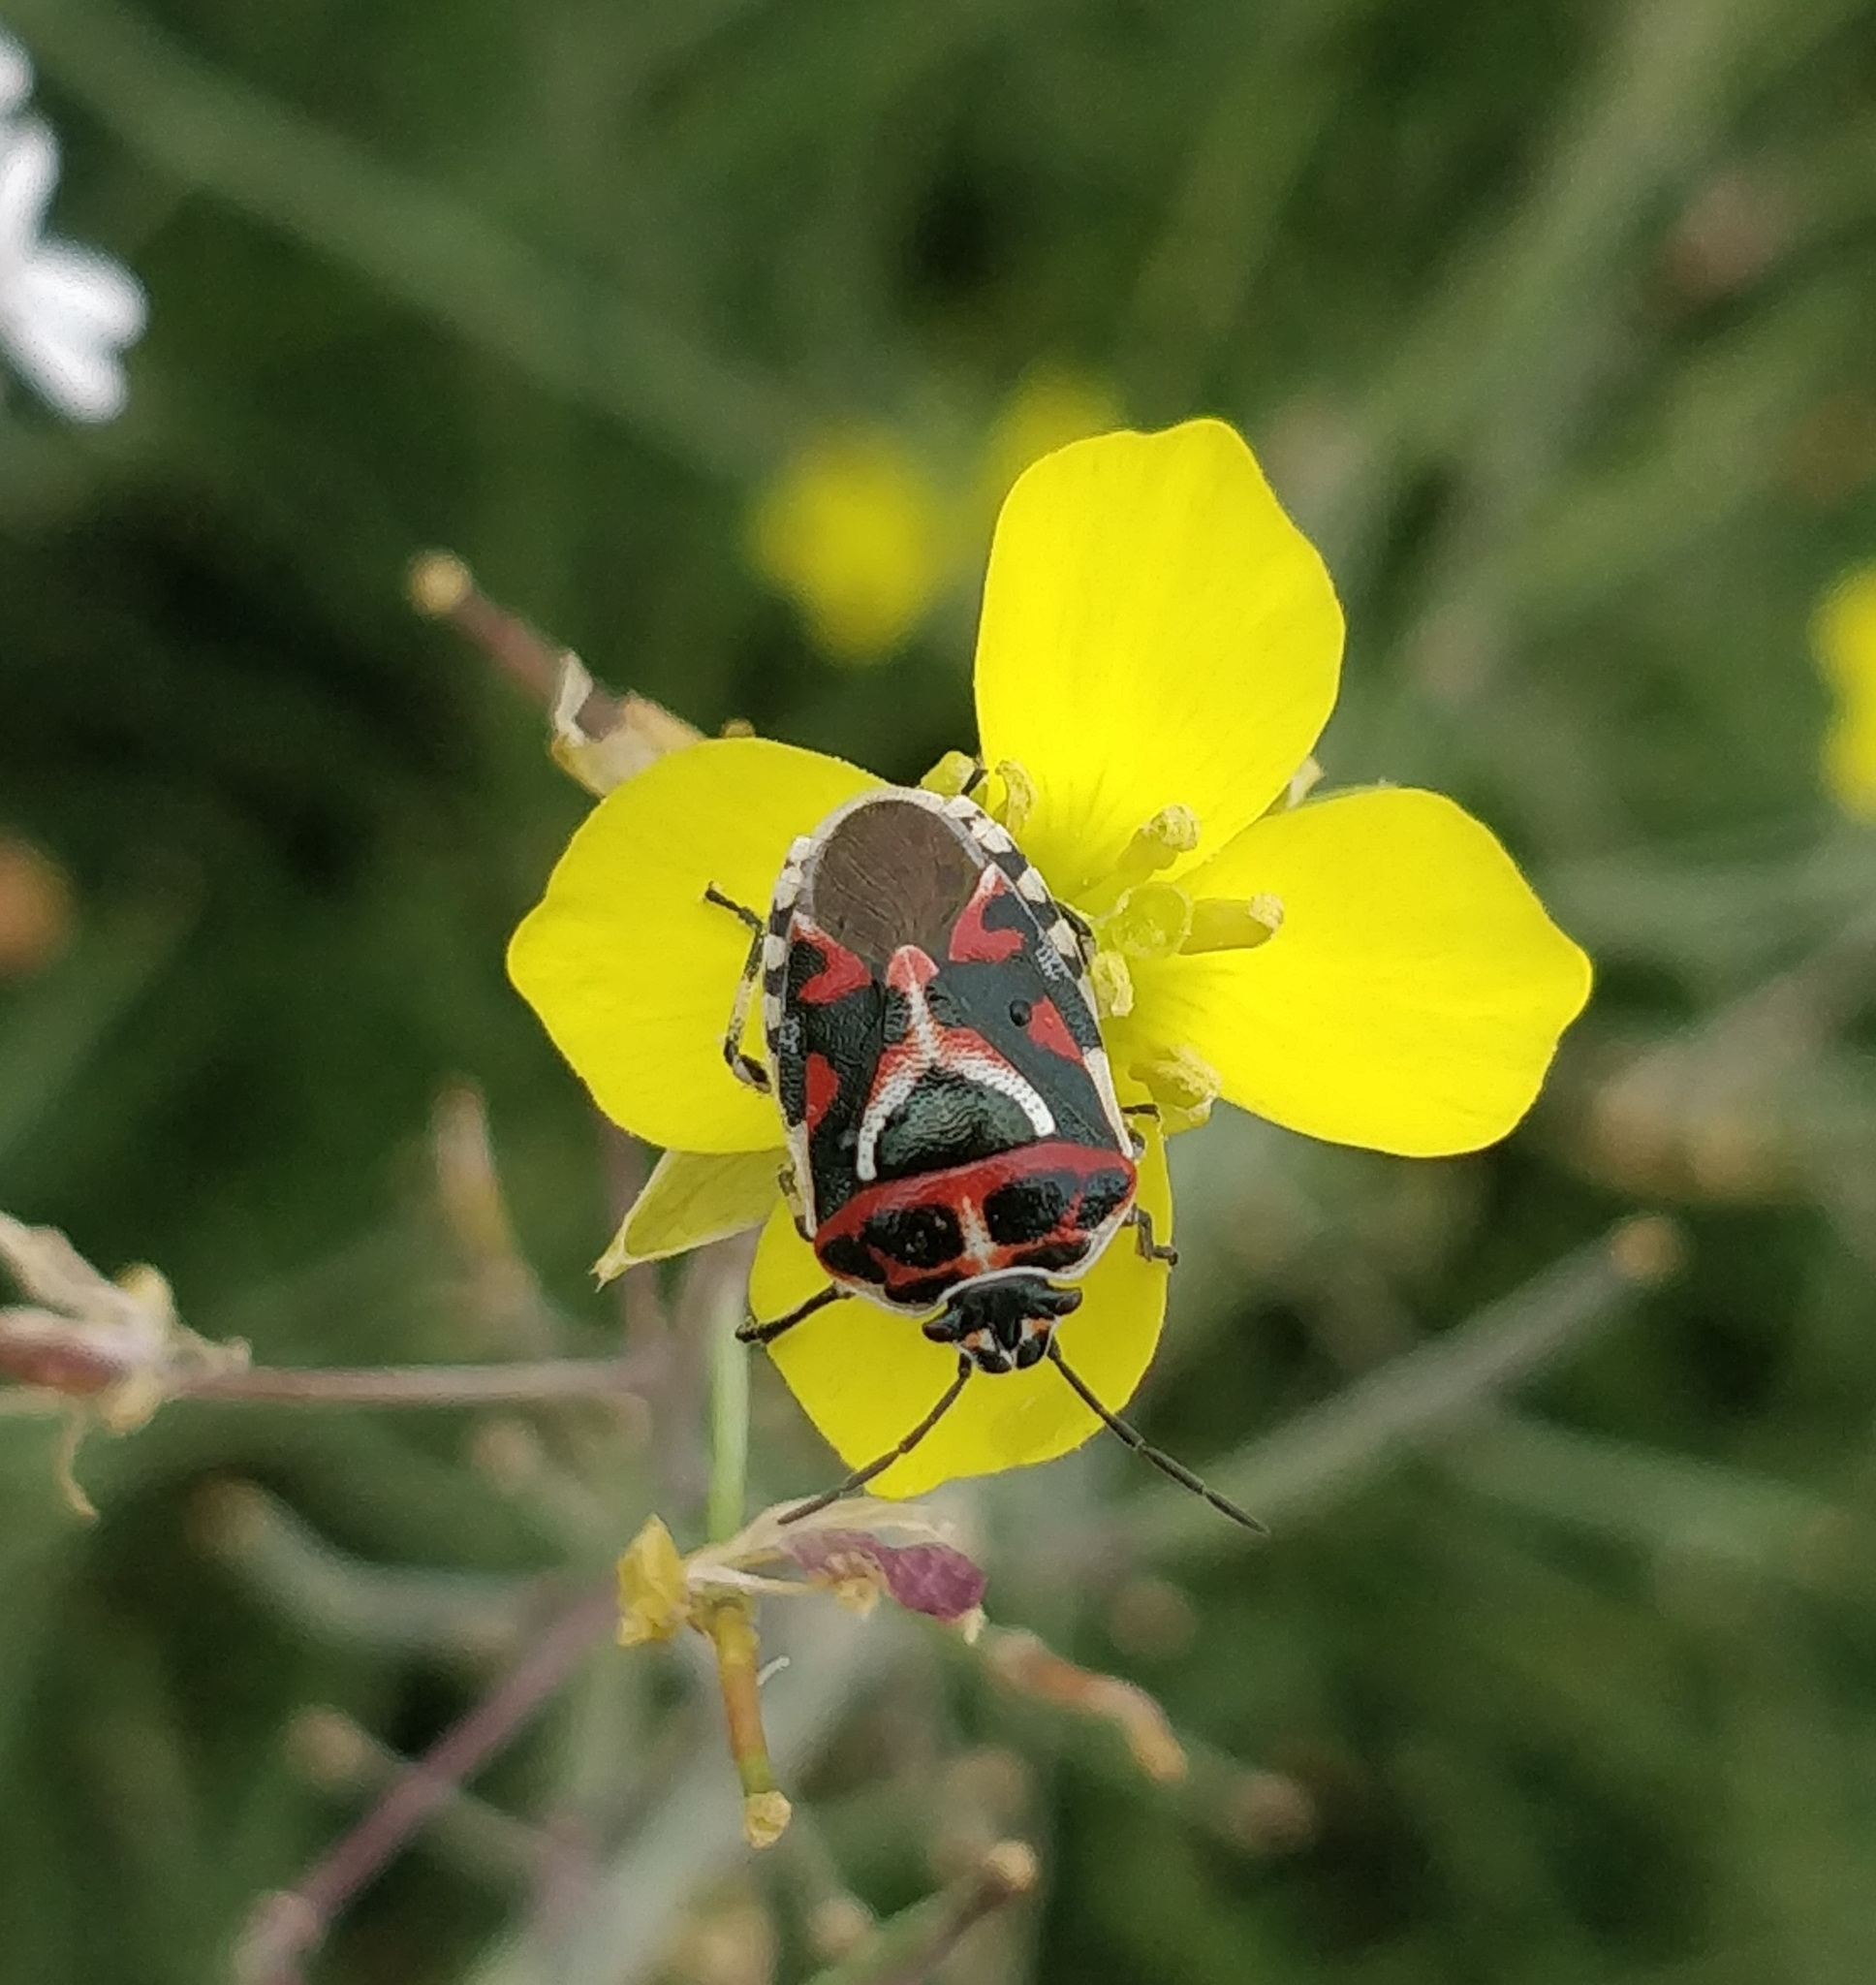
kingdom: Animalia
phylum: Arthropoda
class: Insecta
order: Hemiptera
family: Pentatomidae
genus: Eurydema
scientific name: Eurydema ornata
